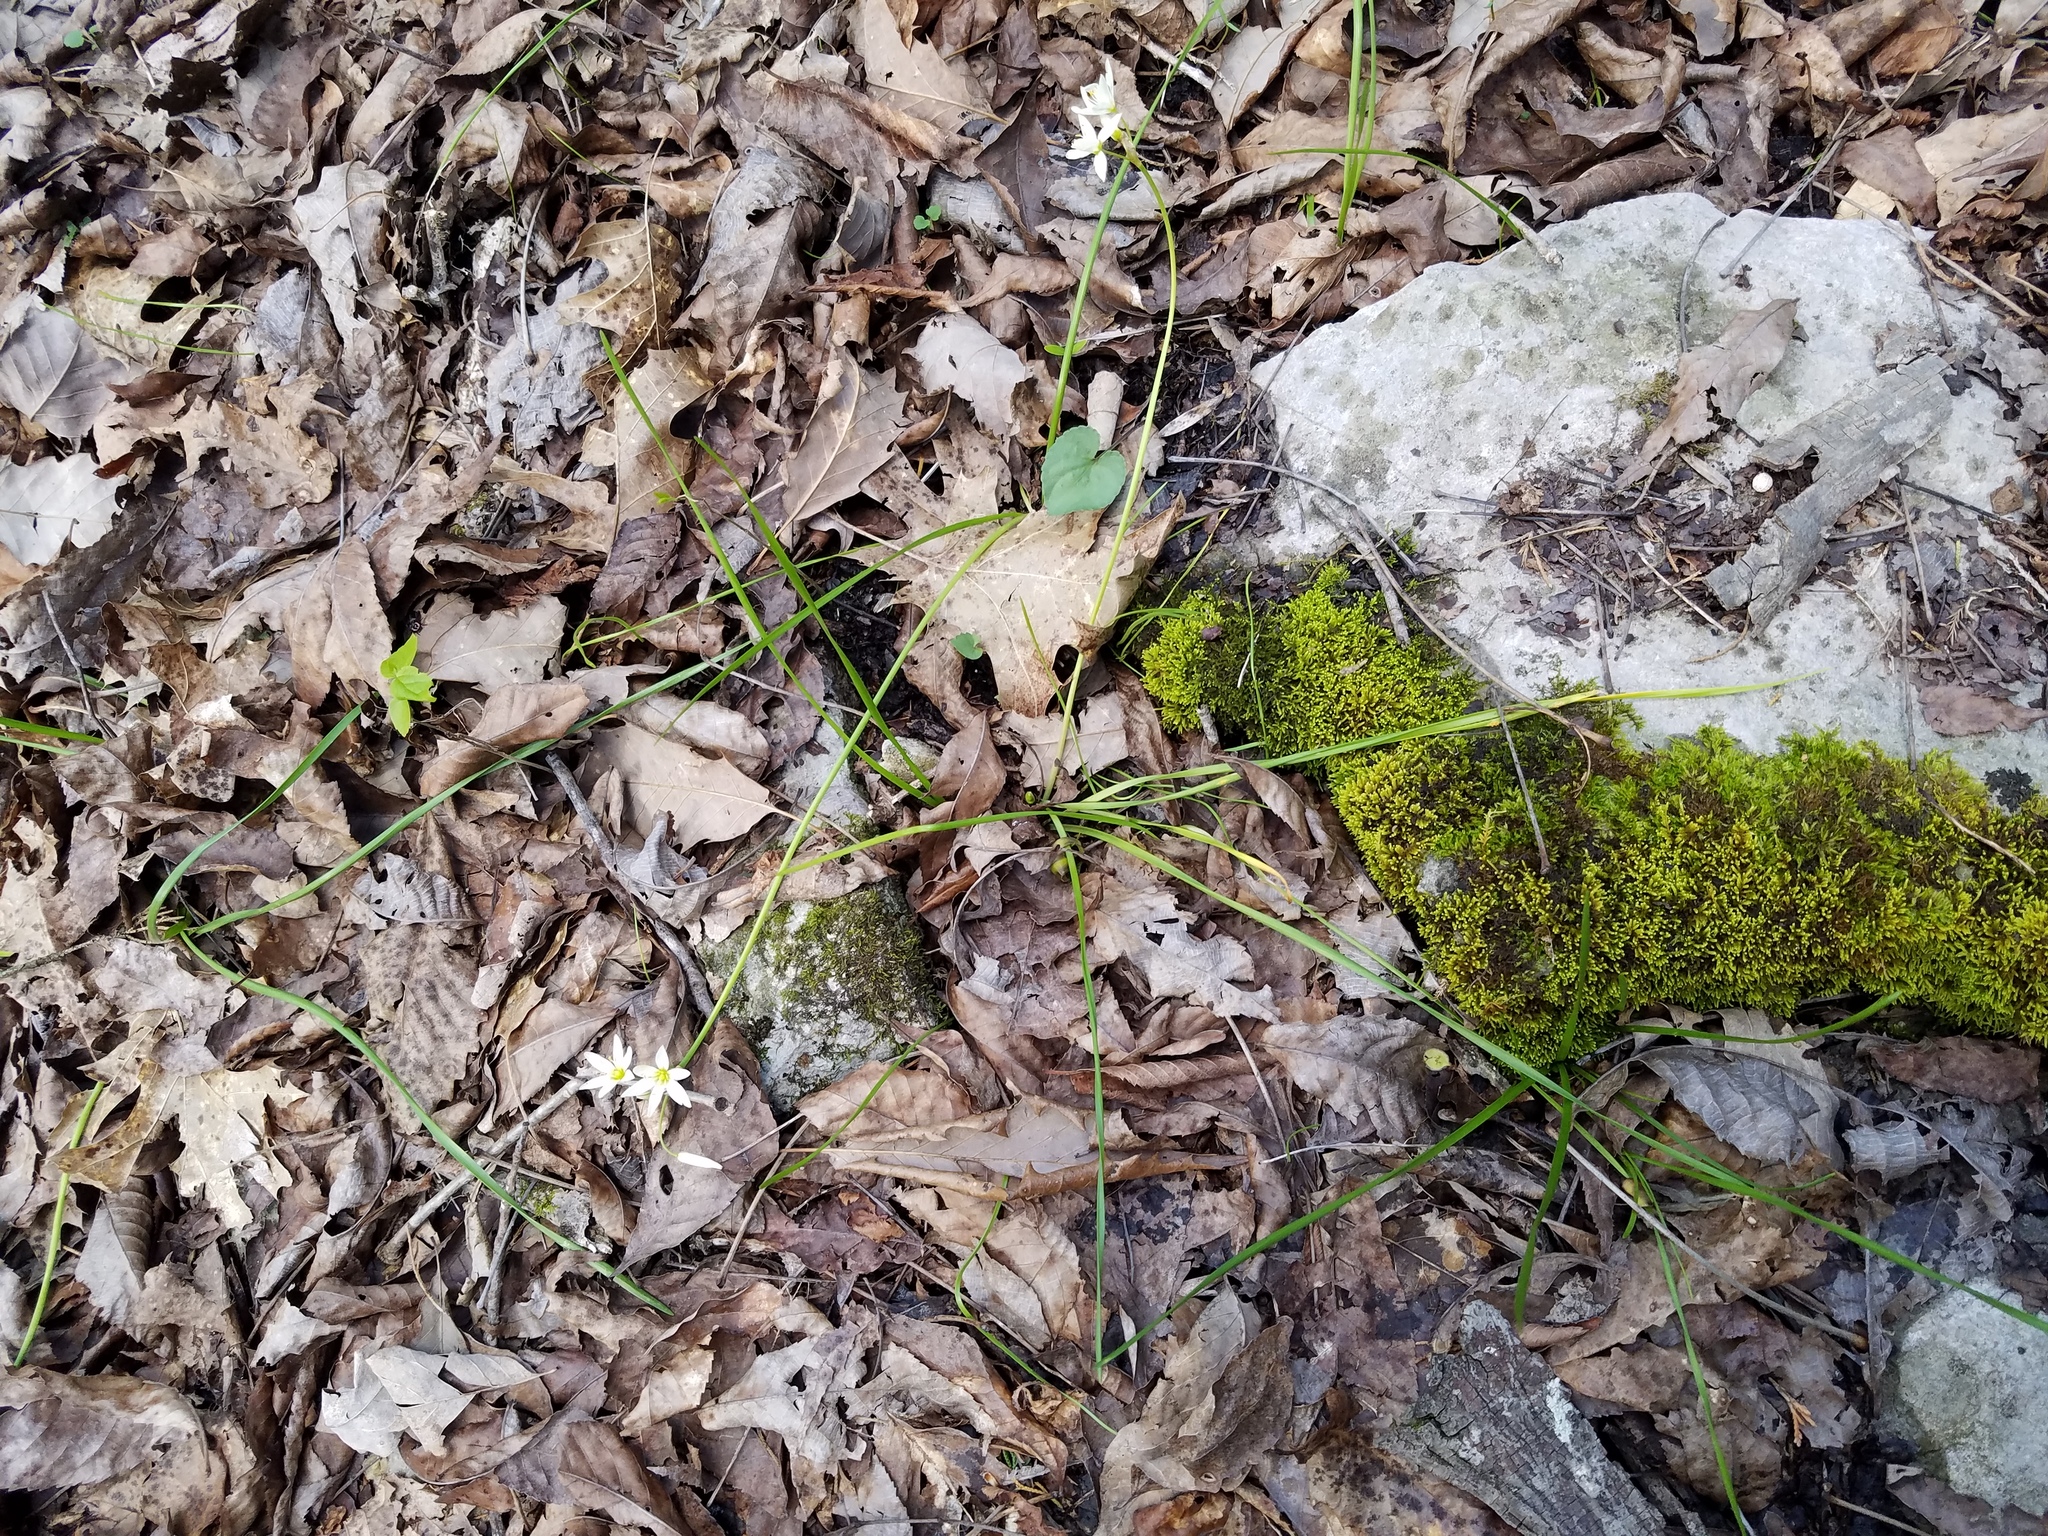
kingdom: Plantae
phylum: Tracheophyta
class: Liliopsida
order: Asparagales
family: Amaryllidaceae
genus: Nothoscordum
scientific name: Nothoscordum bivalve
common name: Crow-poison
